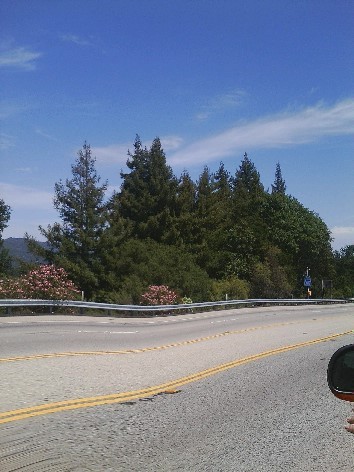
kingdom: Plantae
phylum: Tracheophyta
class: Pinopsida
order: Pinales
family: Cupressaceae
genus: Sequoia
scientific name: Sequoia sempervirens
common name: Coast redwood
